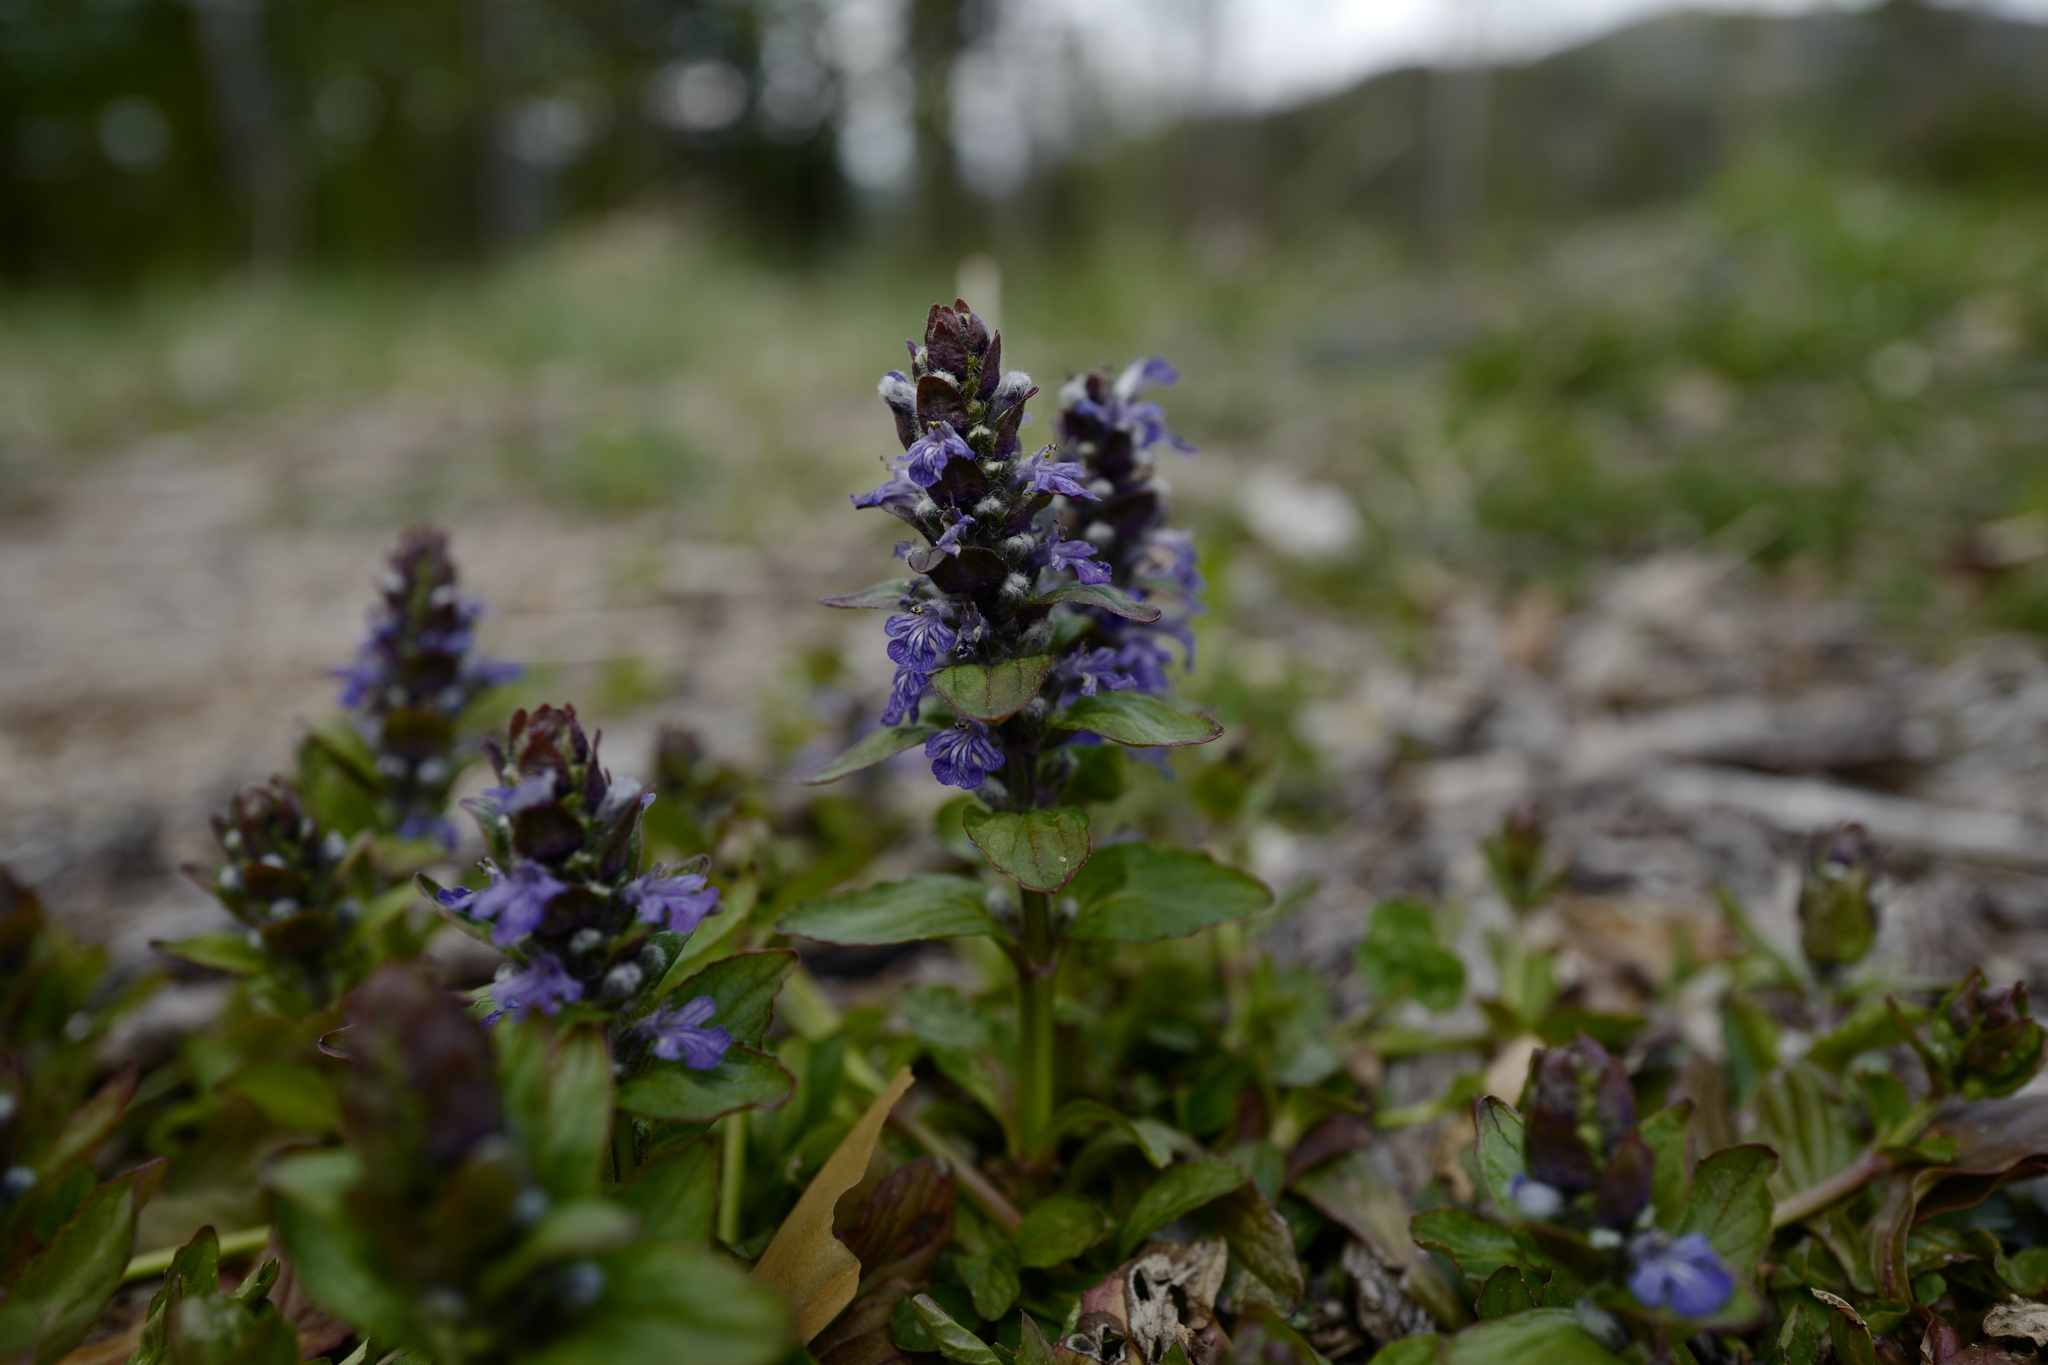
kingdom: Plantae
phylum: Tracheophyta
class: Magnoliopsida
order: Lamiales
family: Lamiaceae
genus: Ajuga
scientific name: Ajuga reptans
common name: Bugle
